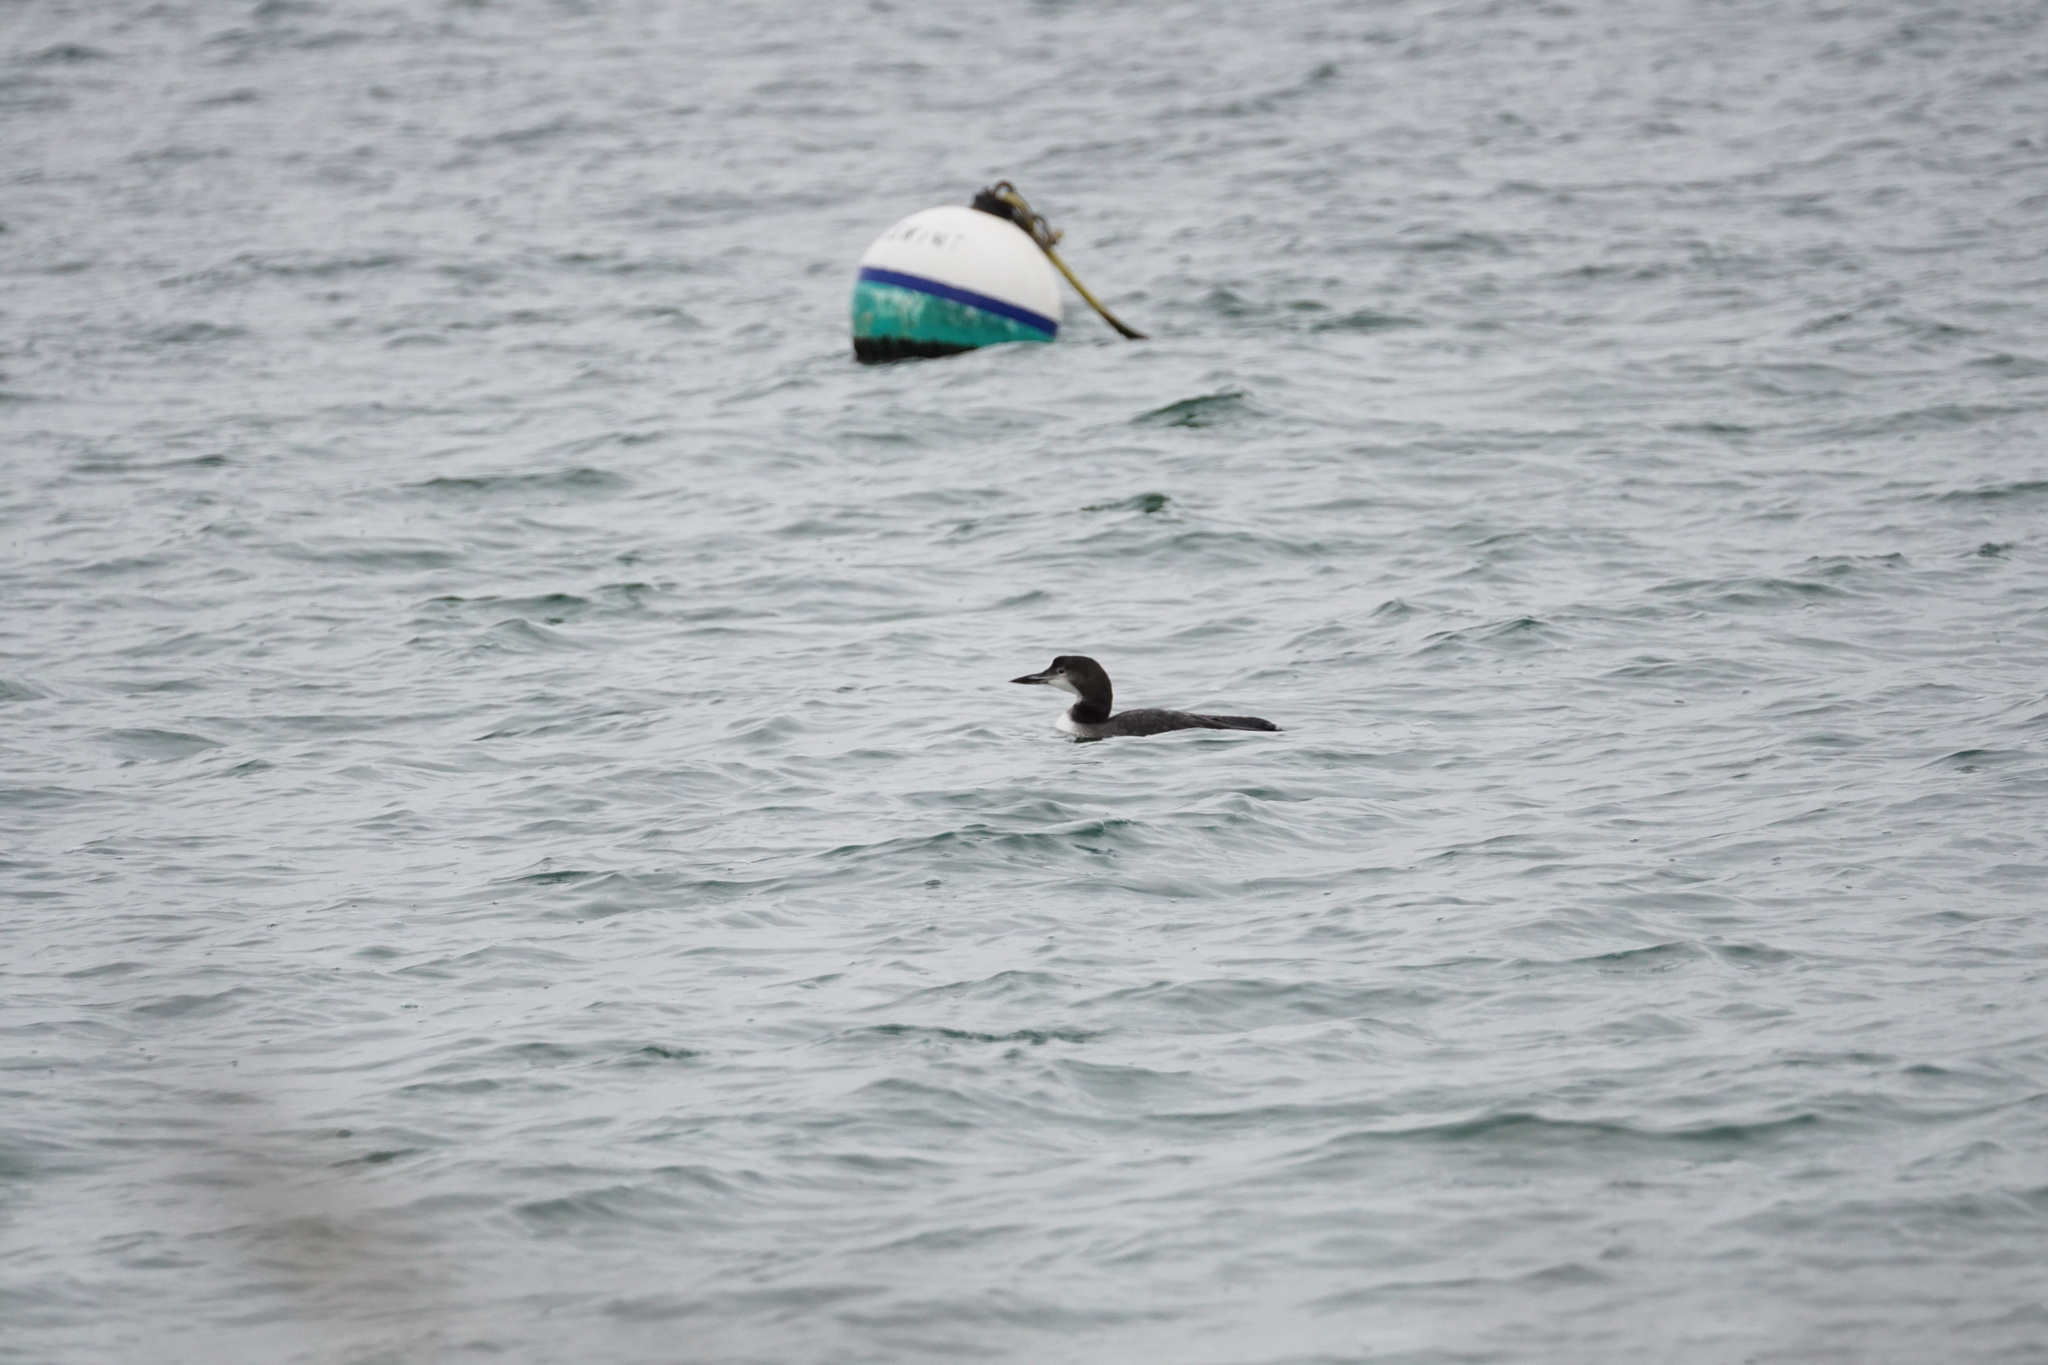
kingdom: Animalia
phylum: Chordata
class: Aves
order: Gaviiformes
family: Gaviidae
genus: Gavia
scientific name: Gavia immer
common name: Common loon
